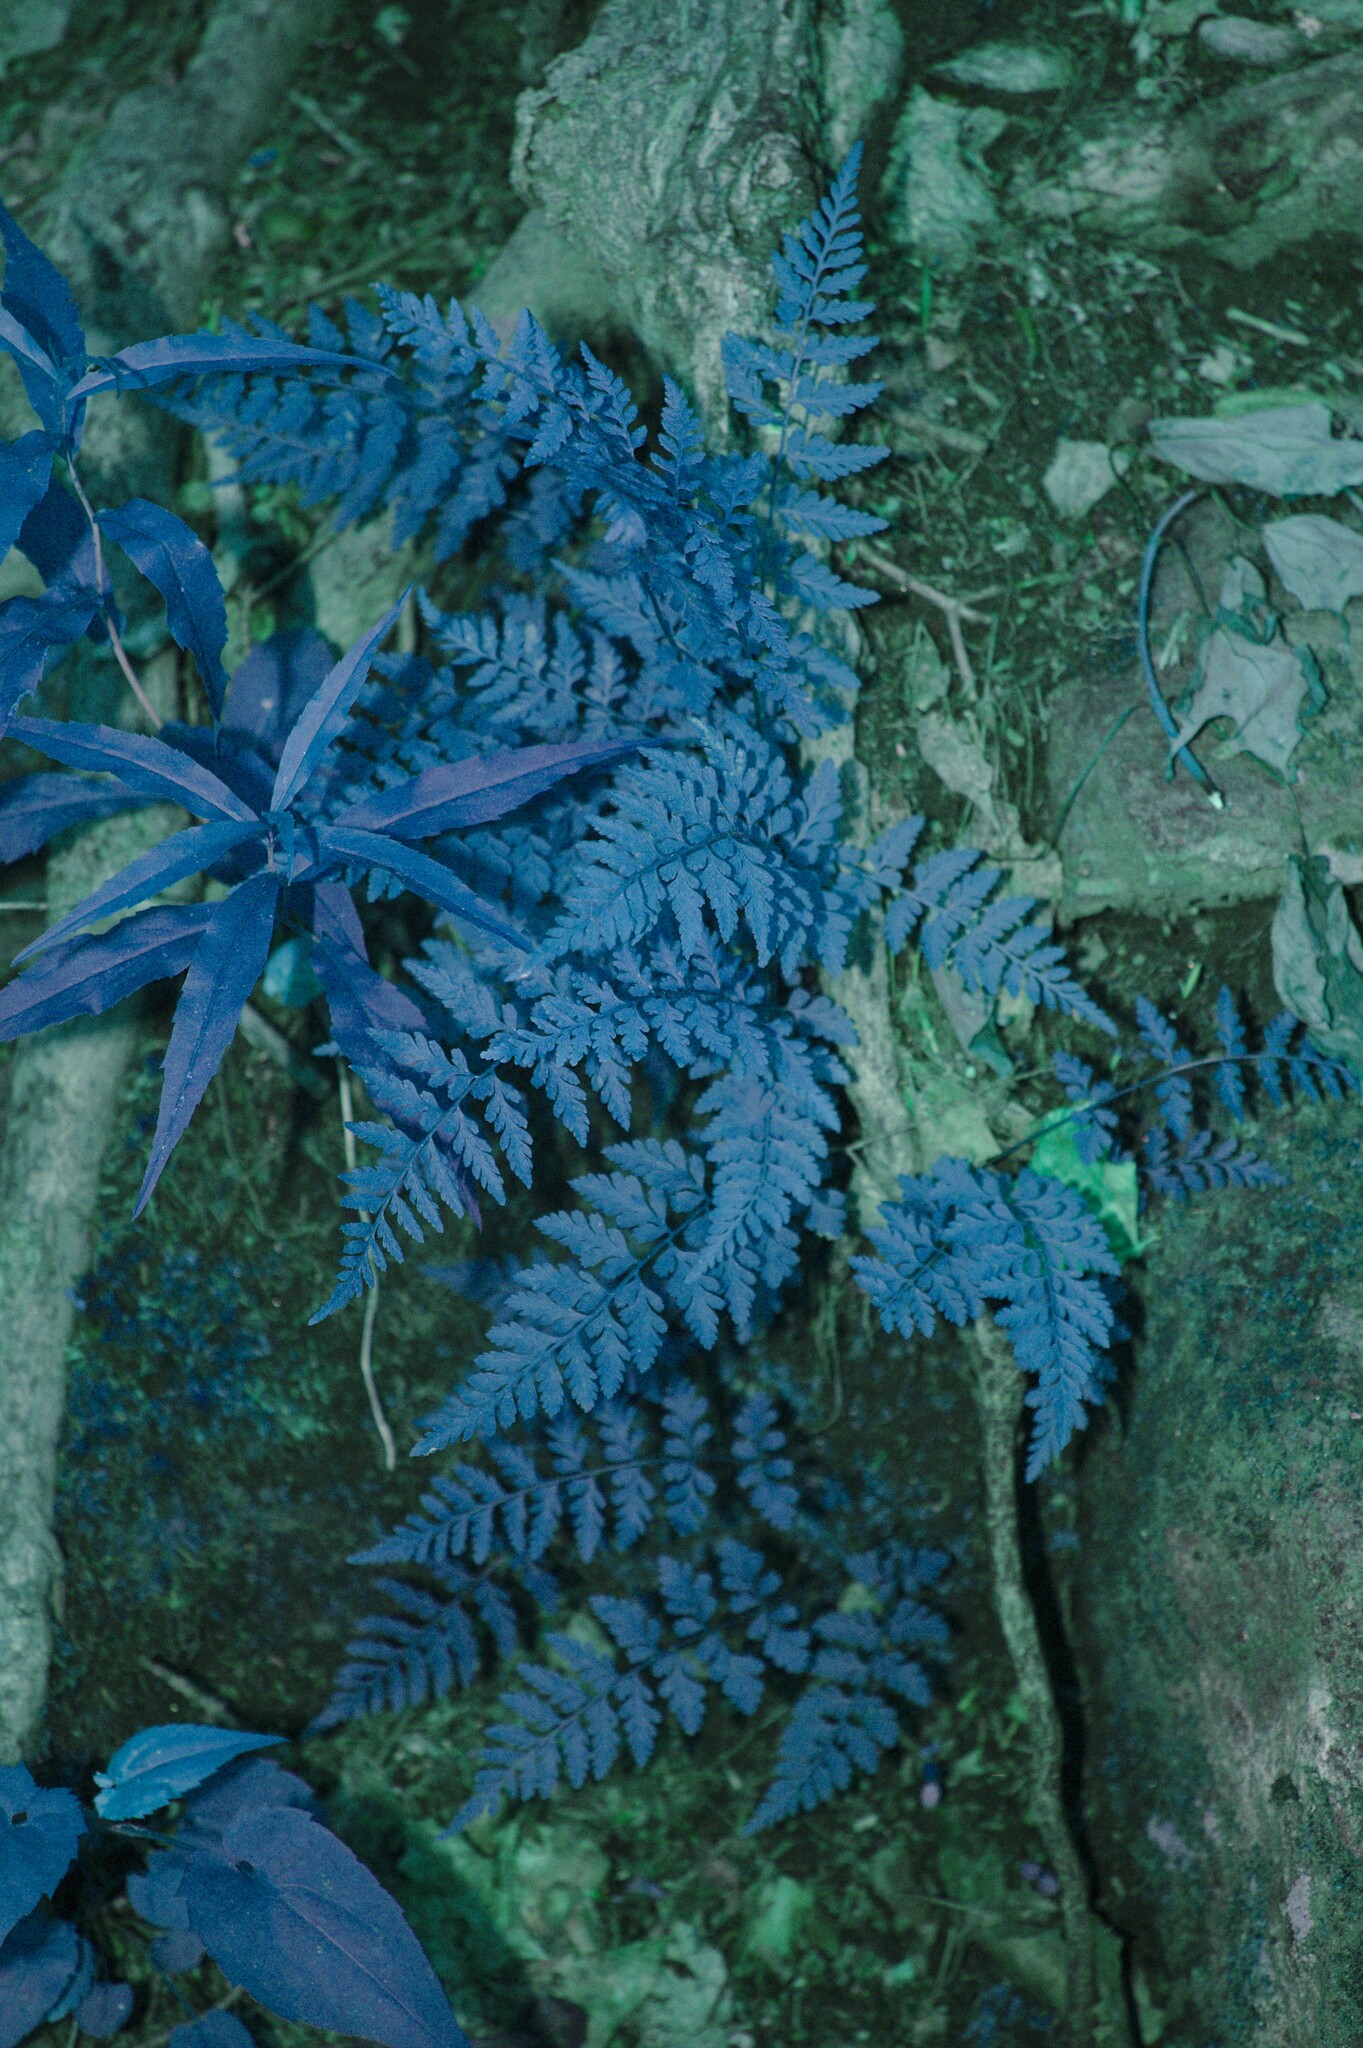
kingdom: Plantae
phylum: Tracheophyta
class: Polypodiopsida
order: Polypodiales
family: Cystopteridaceae
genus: Cystopteris
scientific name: Cystopteris tenuis
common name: Mackay's brittle fern
